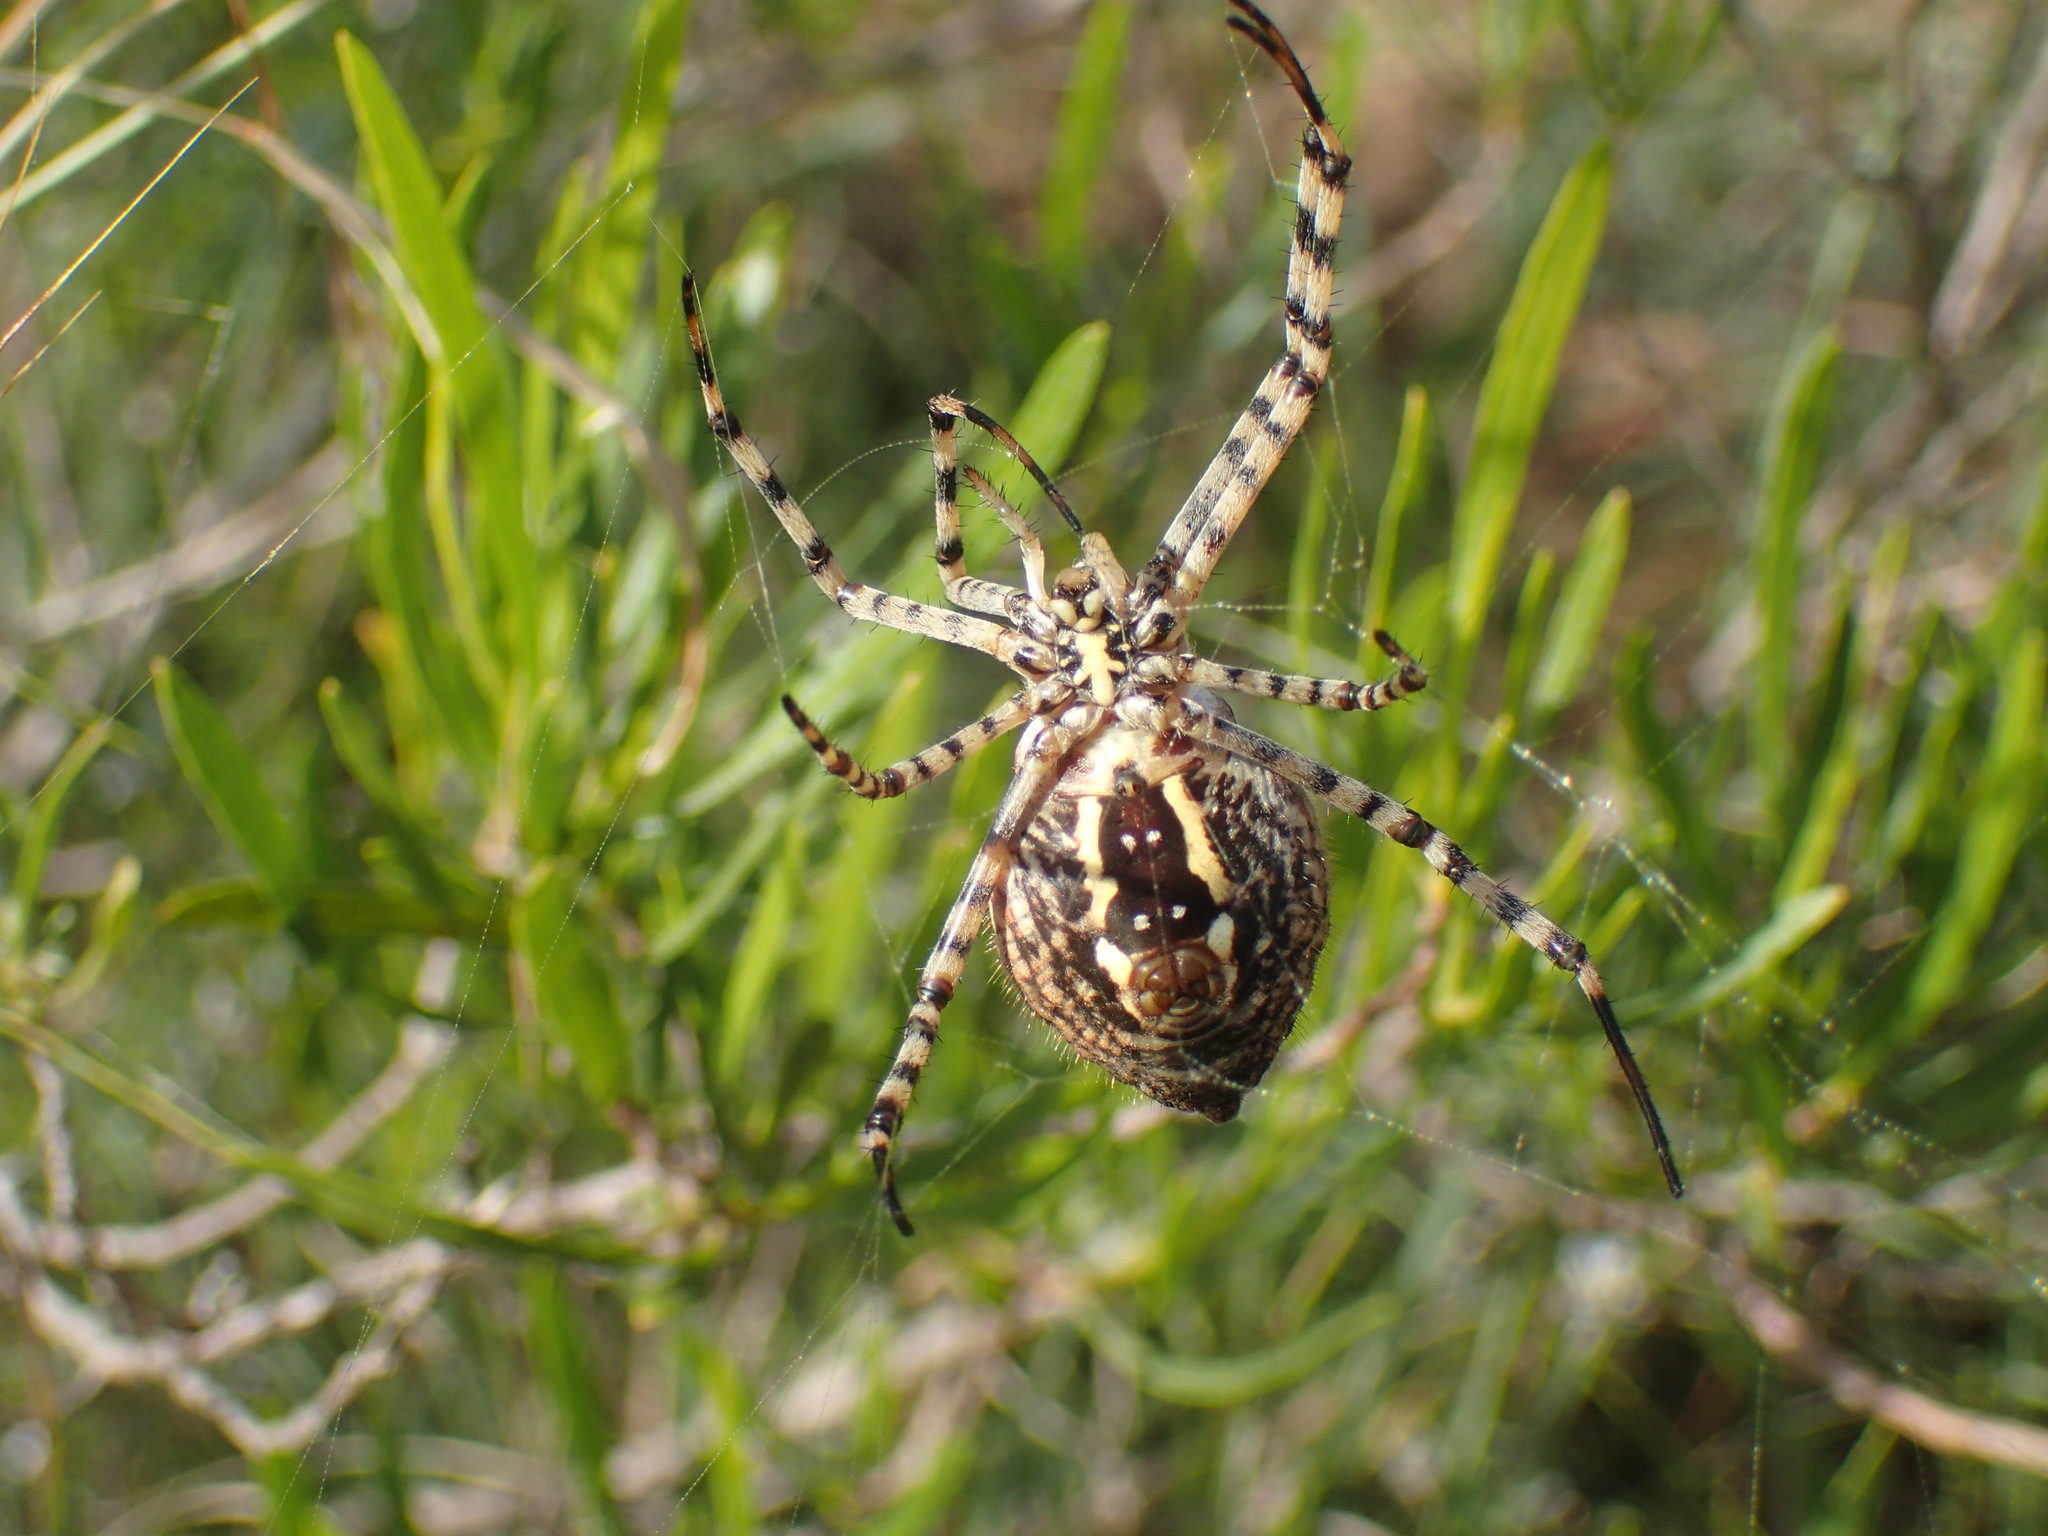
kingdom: Animalia
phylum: Arthropoda
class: Arachnida
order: Araneae
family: Araneidae
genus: Argiope
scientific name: Argiope lobata
